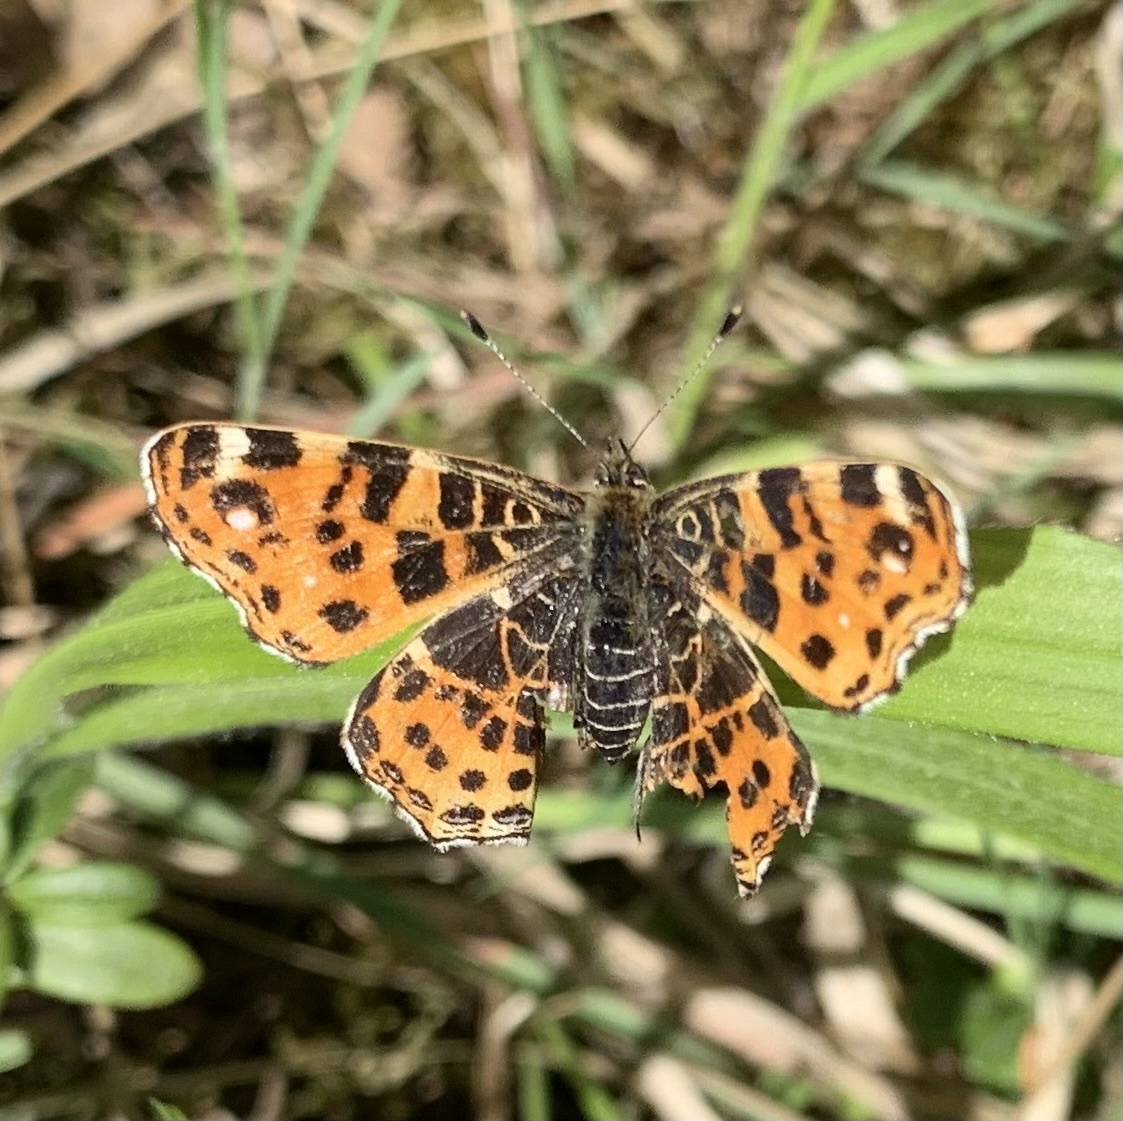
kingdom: Animalia
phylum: Arthropoda
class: Insecta
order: Lepidoptera
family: Nymphalidae
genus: Araschnia
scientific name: Araschnia levana
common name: Map butterfly
